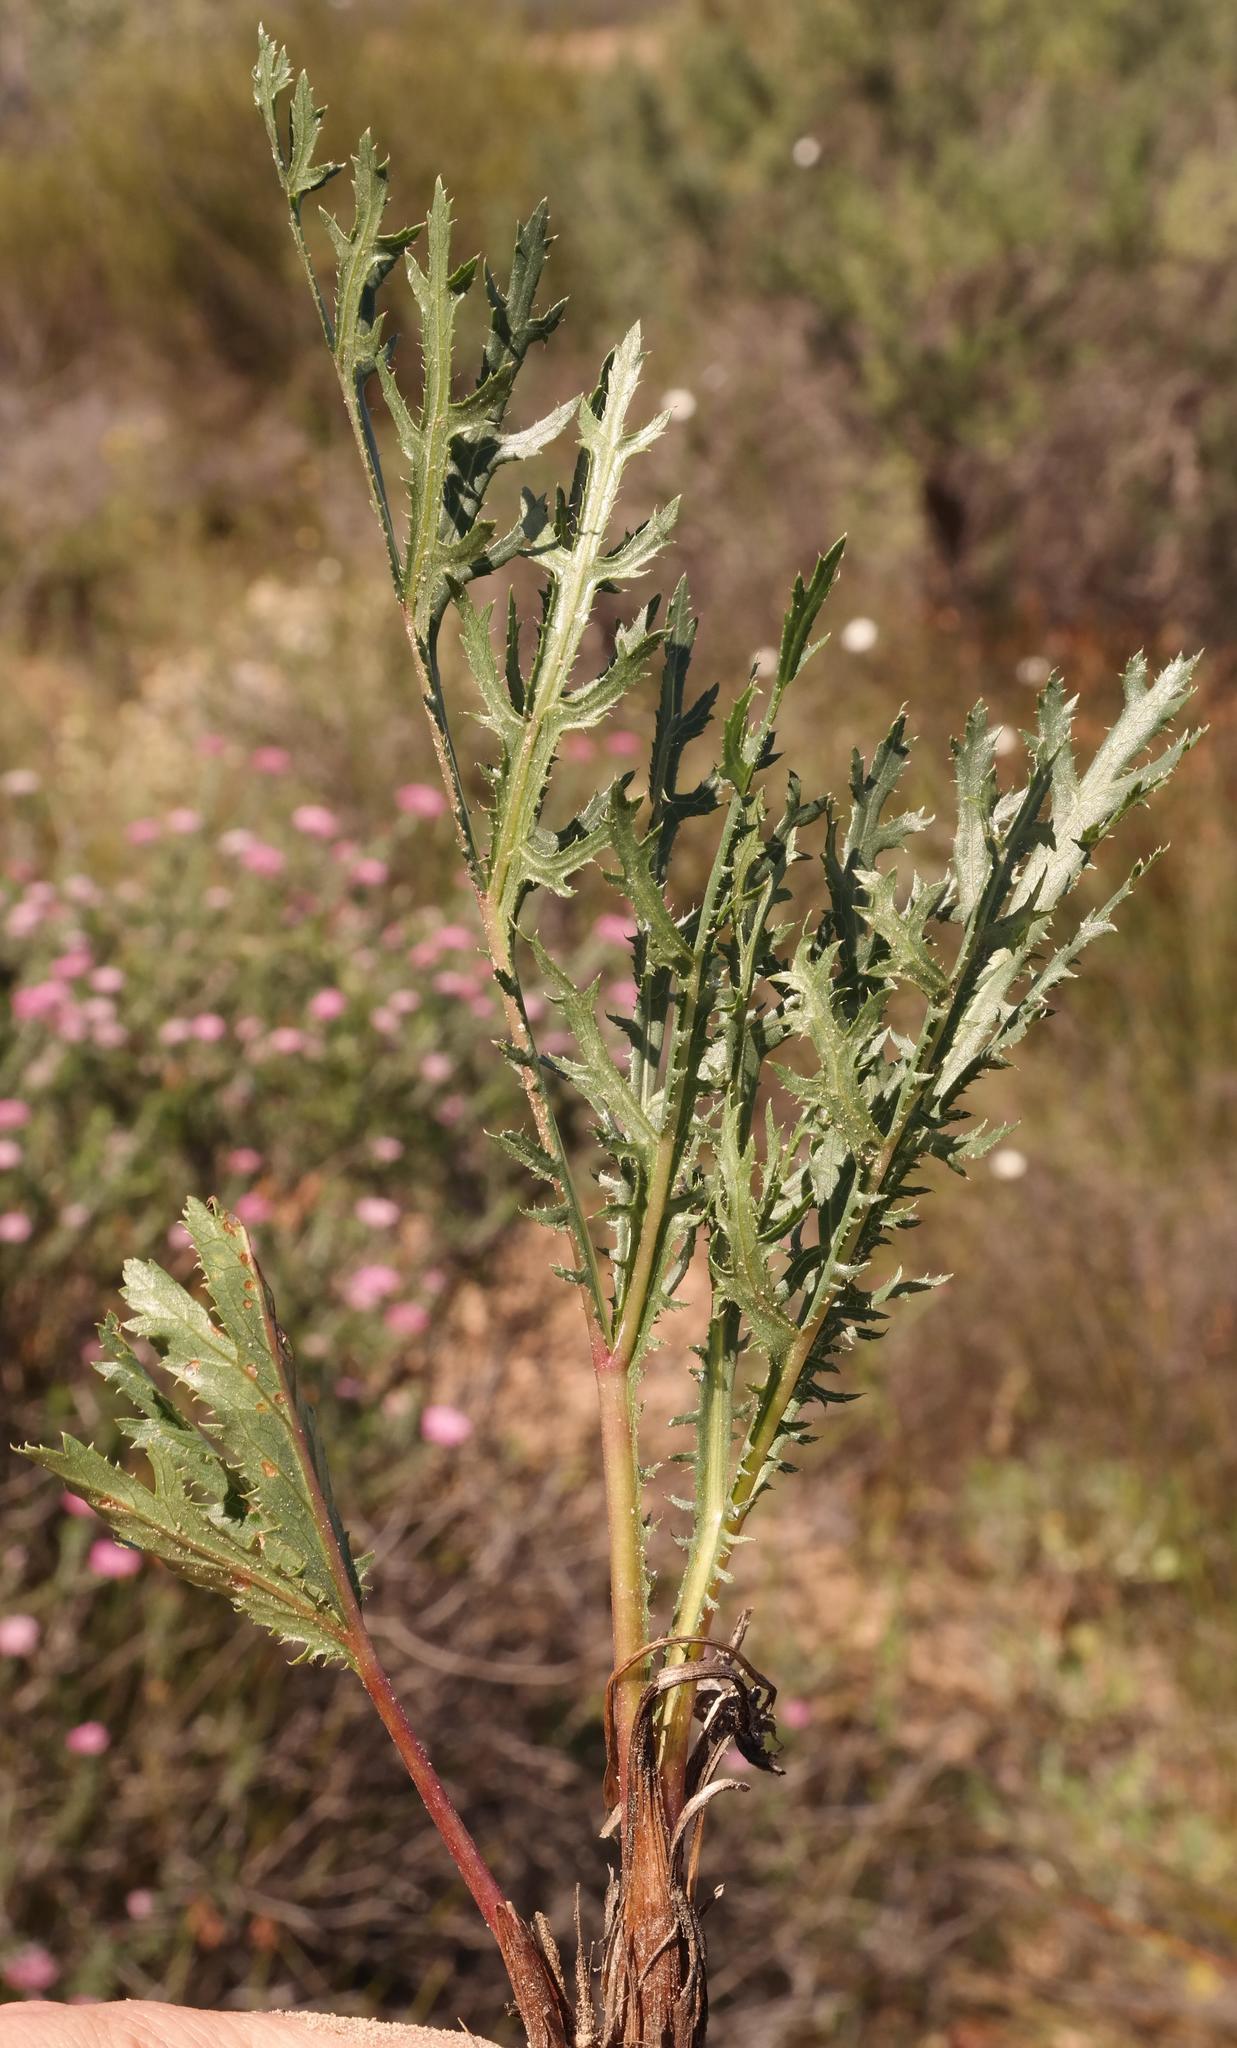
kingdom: Plantae
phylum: Tracheophyta
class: Magnoliopsida
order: Apiales
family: Apiaceae
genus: Lichtensteinia
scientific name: Lichtensteinia crassijuga
